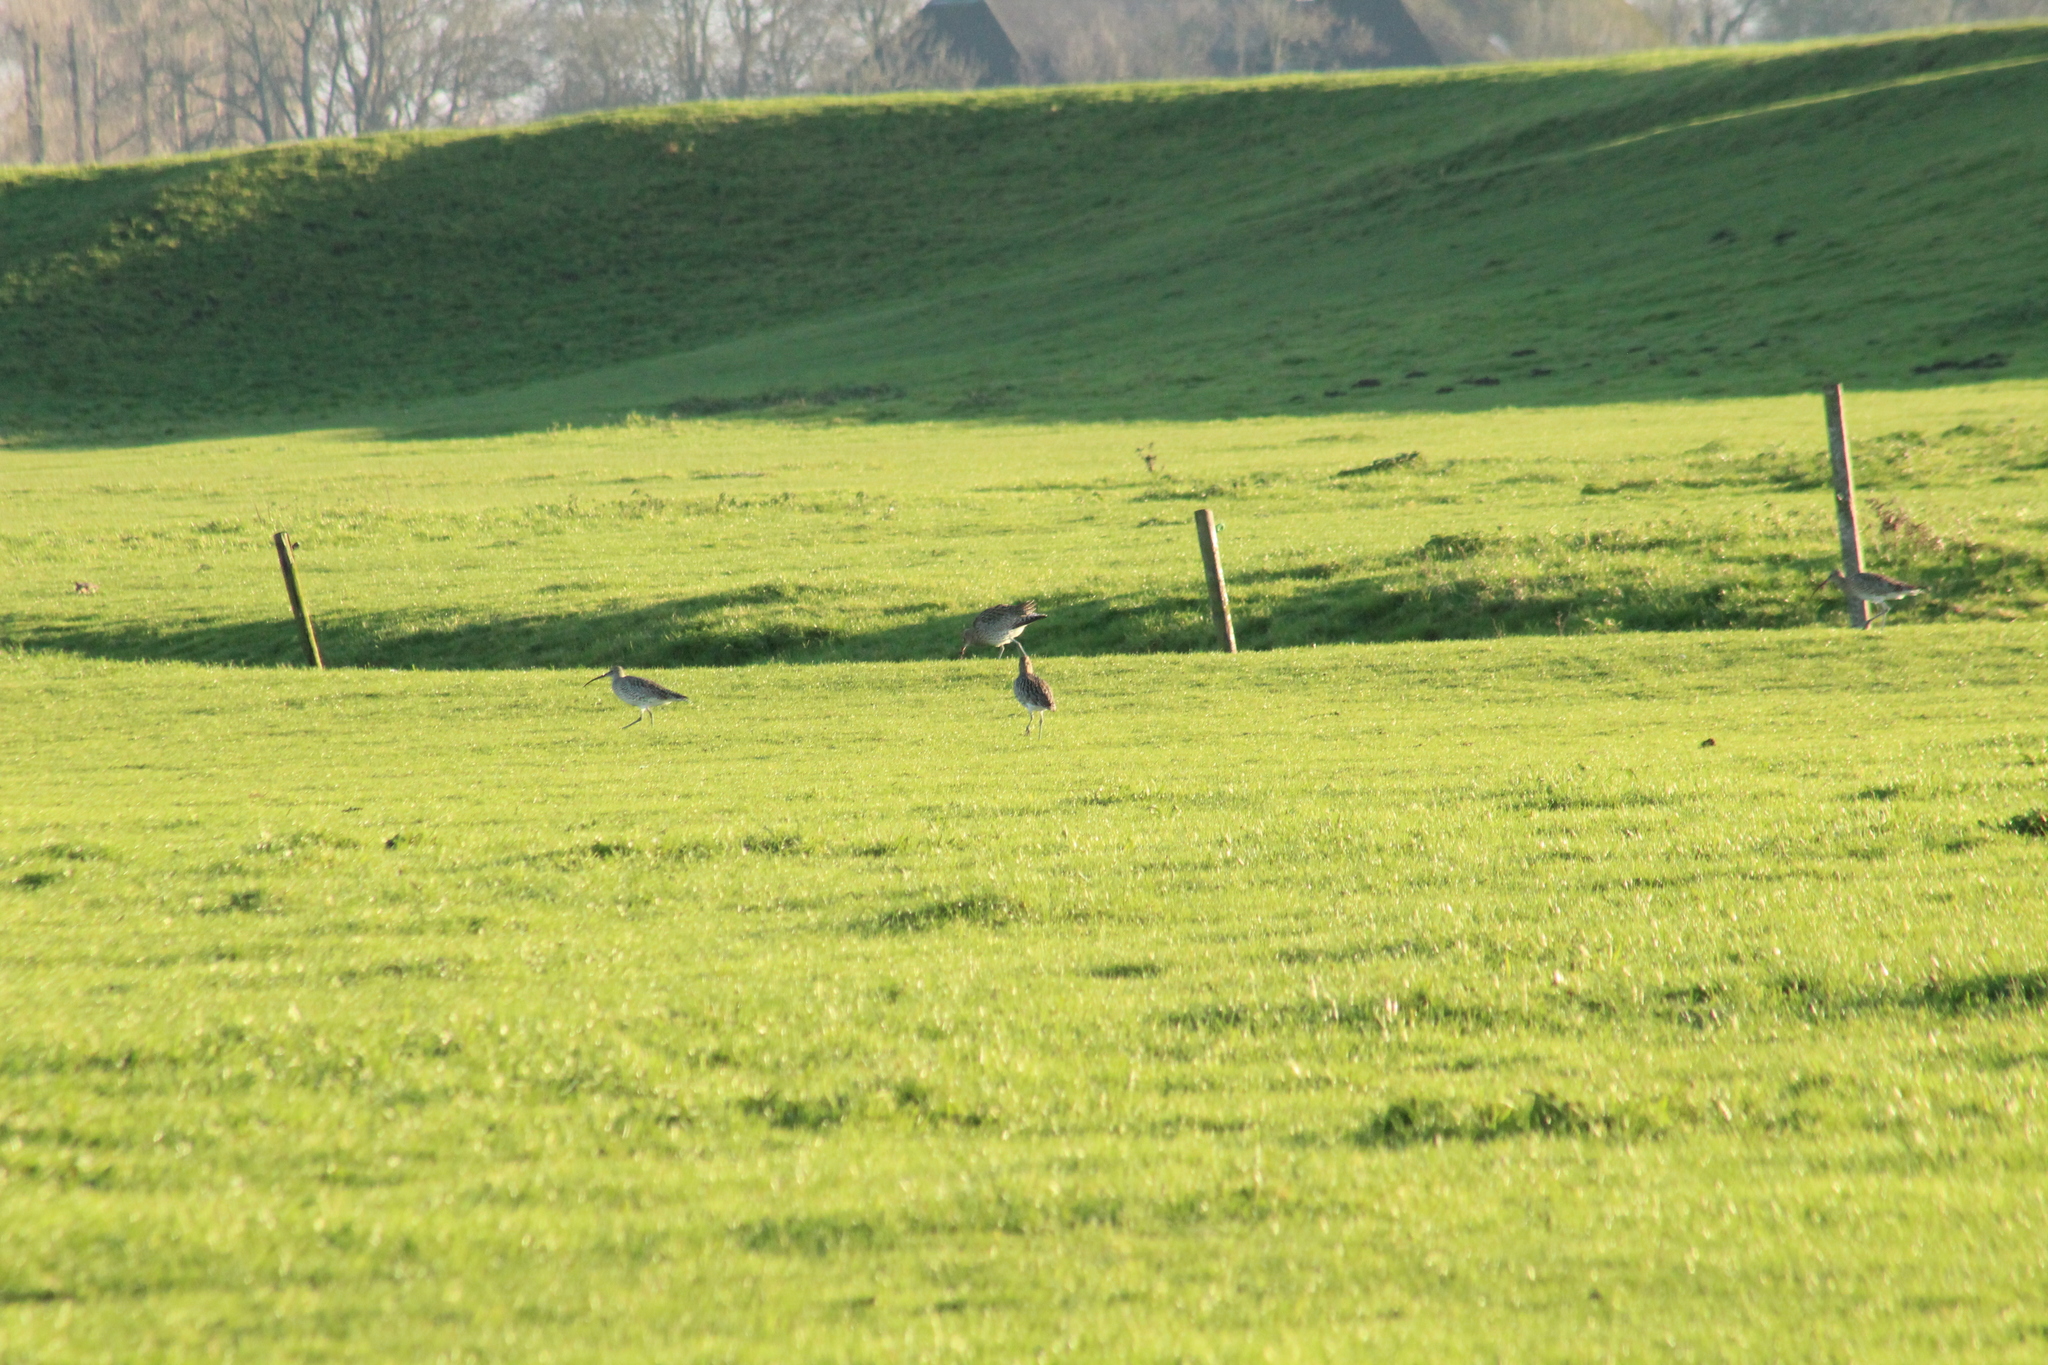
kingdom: Animalia
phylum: Chordata
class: Aves
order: Charadriiformes
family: Scolopacidae
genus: Numenius
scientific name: Numenius arquata
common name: Eurasian curlew
